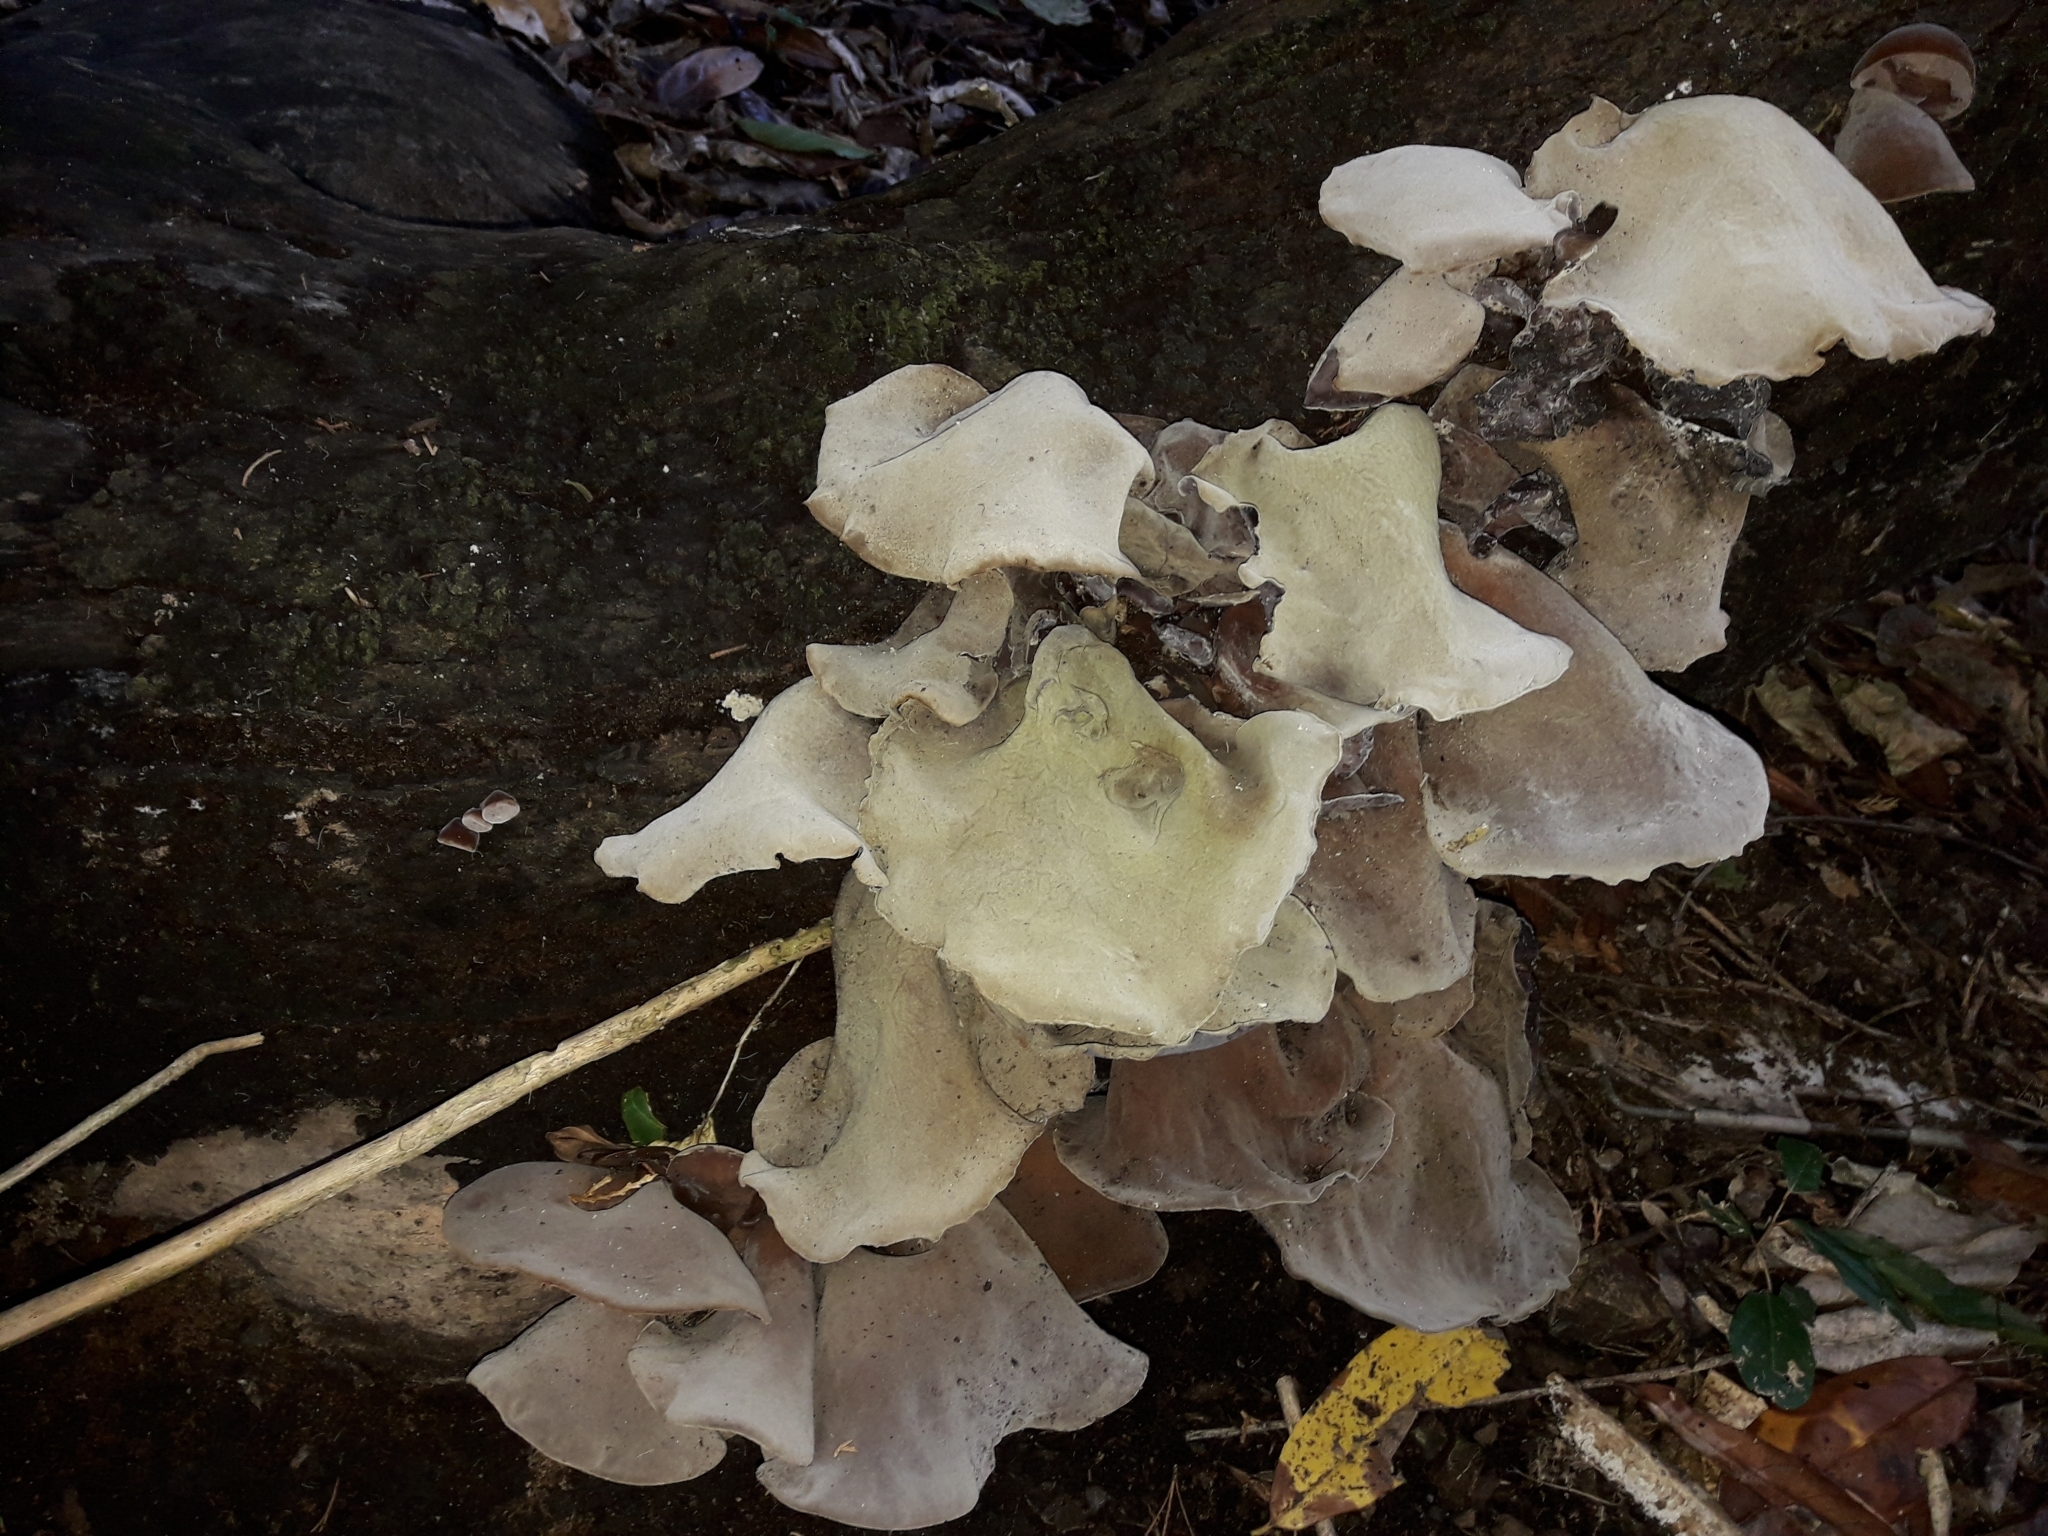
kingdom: Fungi
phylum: Basidiomycota
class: Agaricomycetes
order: Auriculariales
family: Auriculariaceae
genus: Auricularia
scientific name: Auricularia cornea
